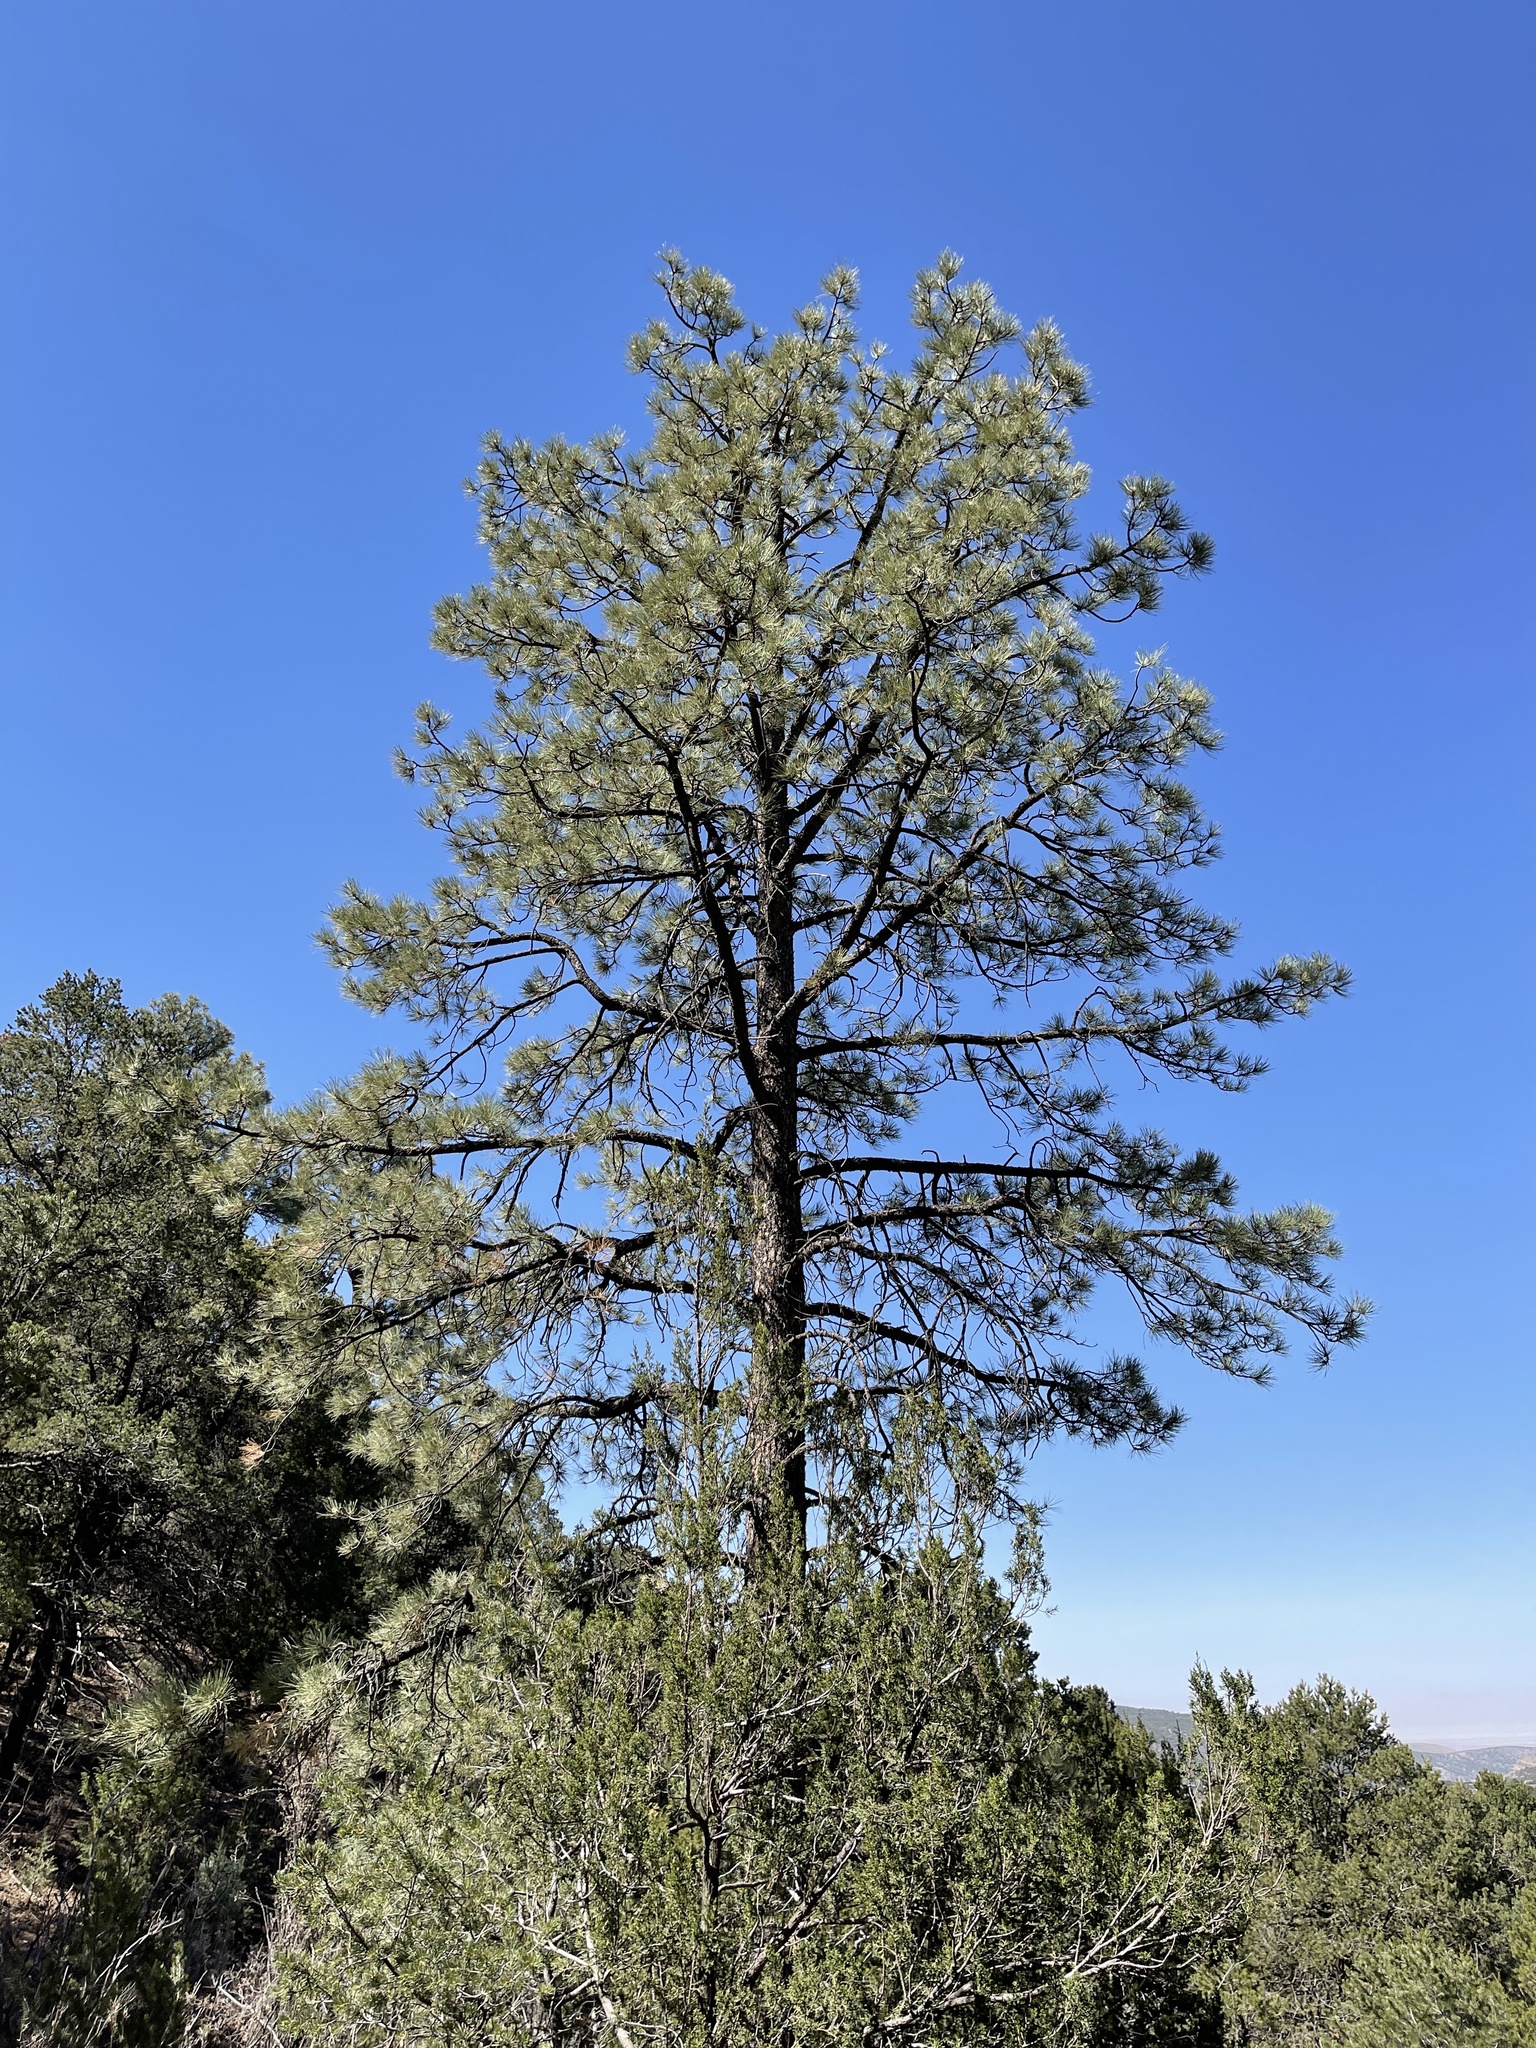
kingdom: Plantae
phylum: Tracheophyta
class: Pinopsida
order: Pinales
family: Pinaceae
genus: Pinus
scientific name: Pinus ponderosa
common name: Western yellow-pine
